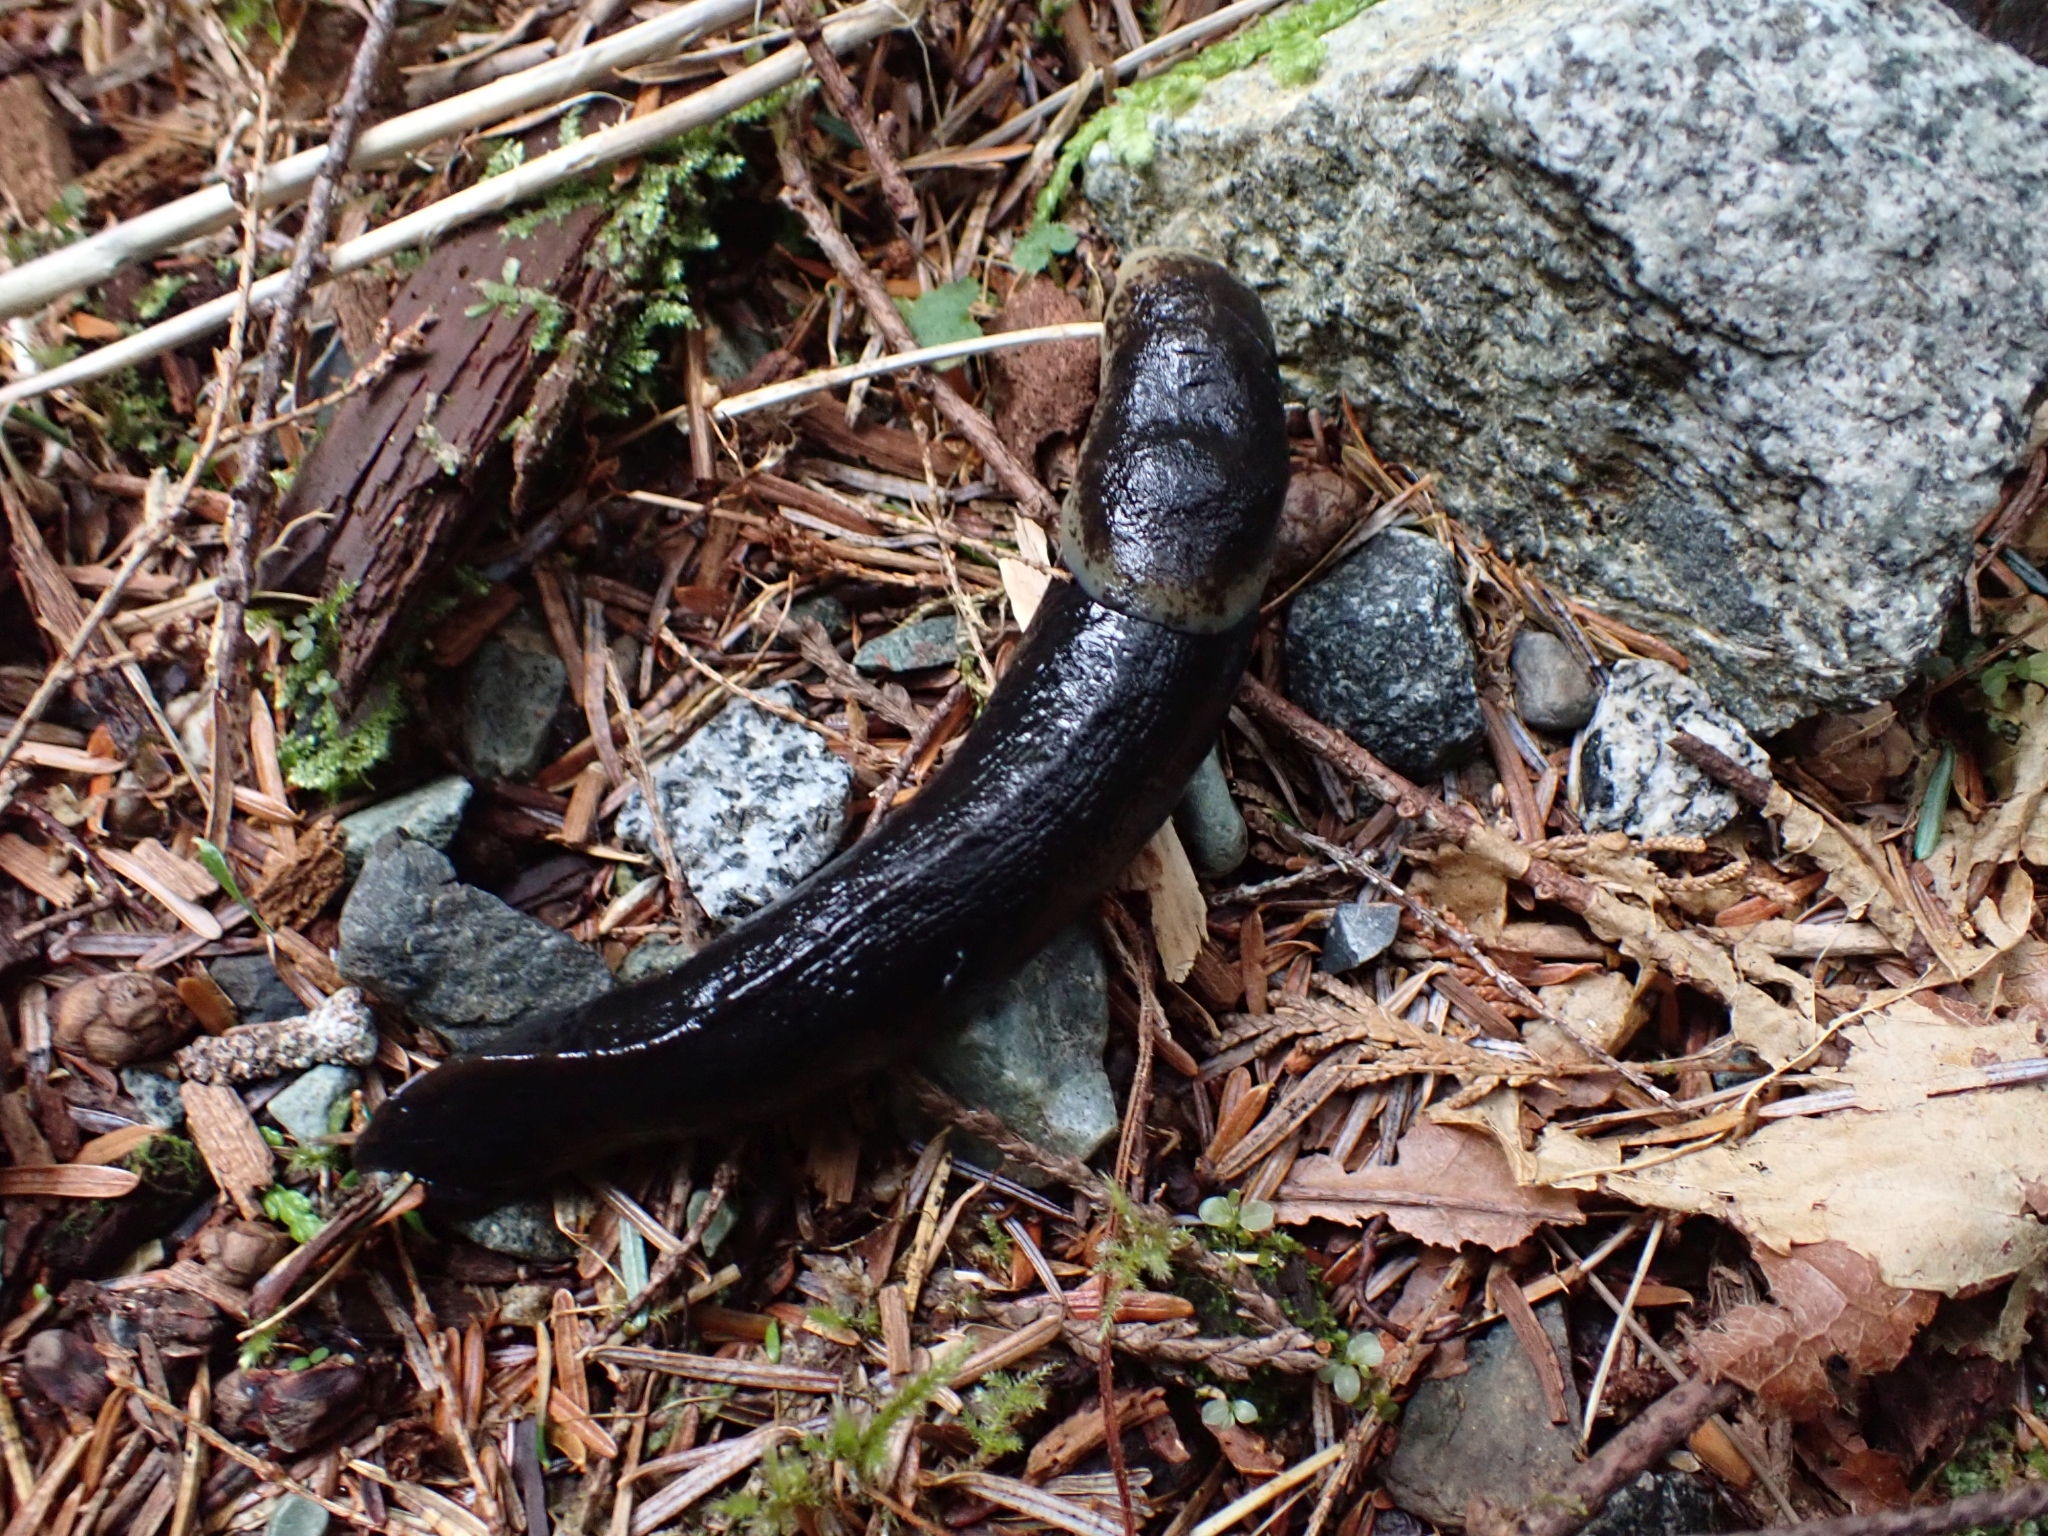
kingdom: Animalia
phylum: Mollusca
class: Gastropoda
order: Stylommatophora
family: Ariolimacidae
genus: Ariolimax
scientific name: Ariolimax columbianus
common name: Pacific banana slug
